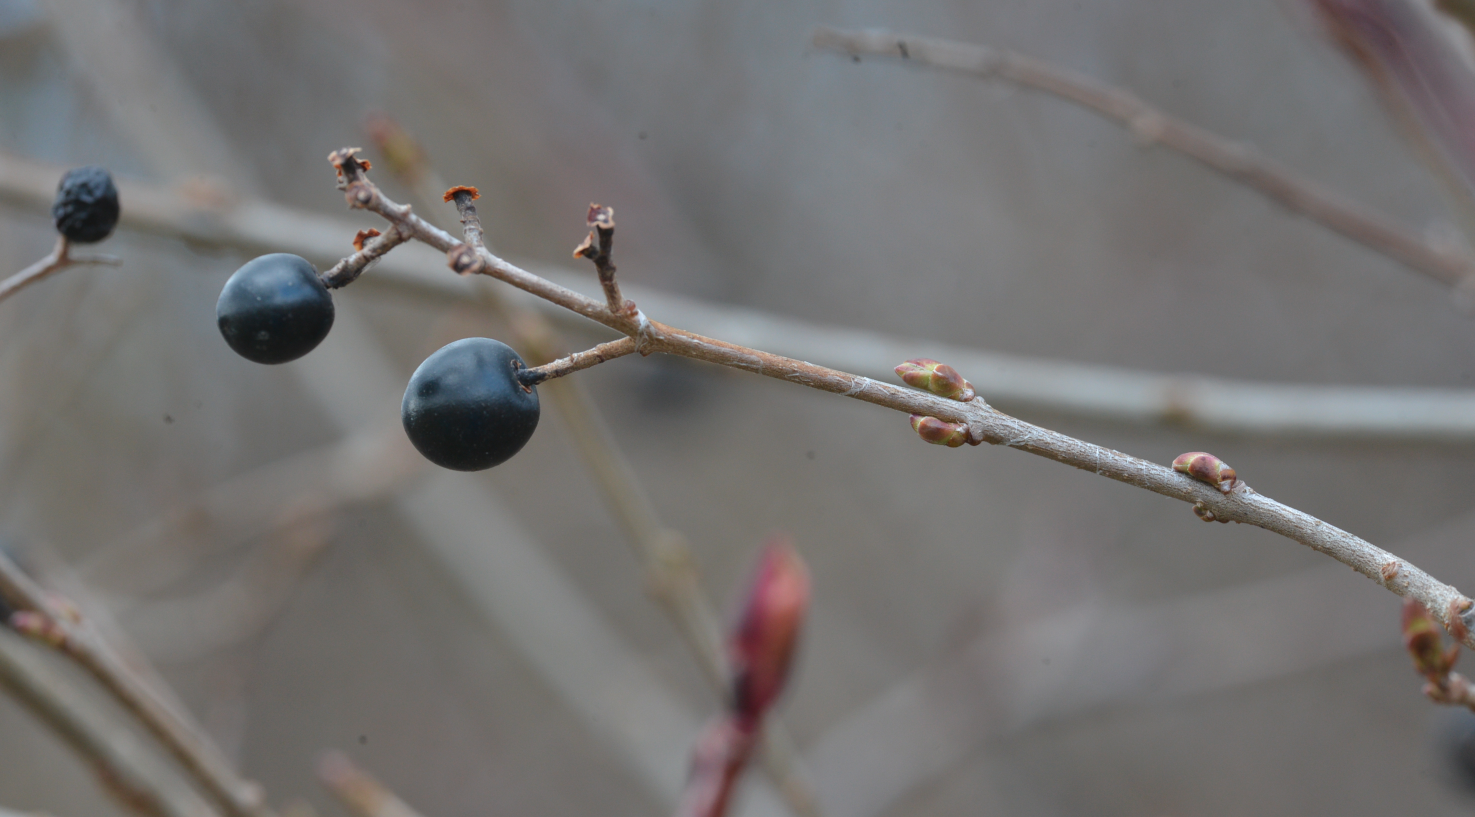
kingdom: Plantae
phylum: Tracheophyta
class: Magnoliopsida
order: Lamiales
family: Oleaceae
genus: Ligustrum
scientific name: Ligustrum vulgare
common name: Wild privet
